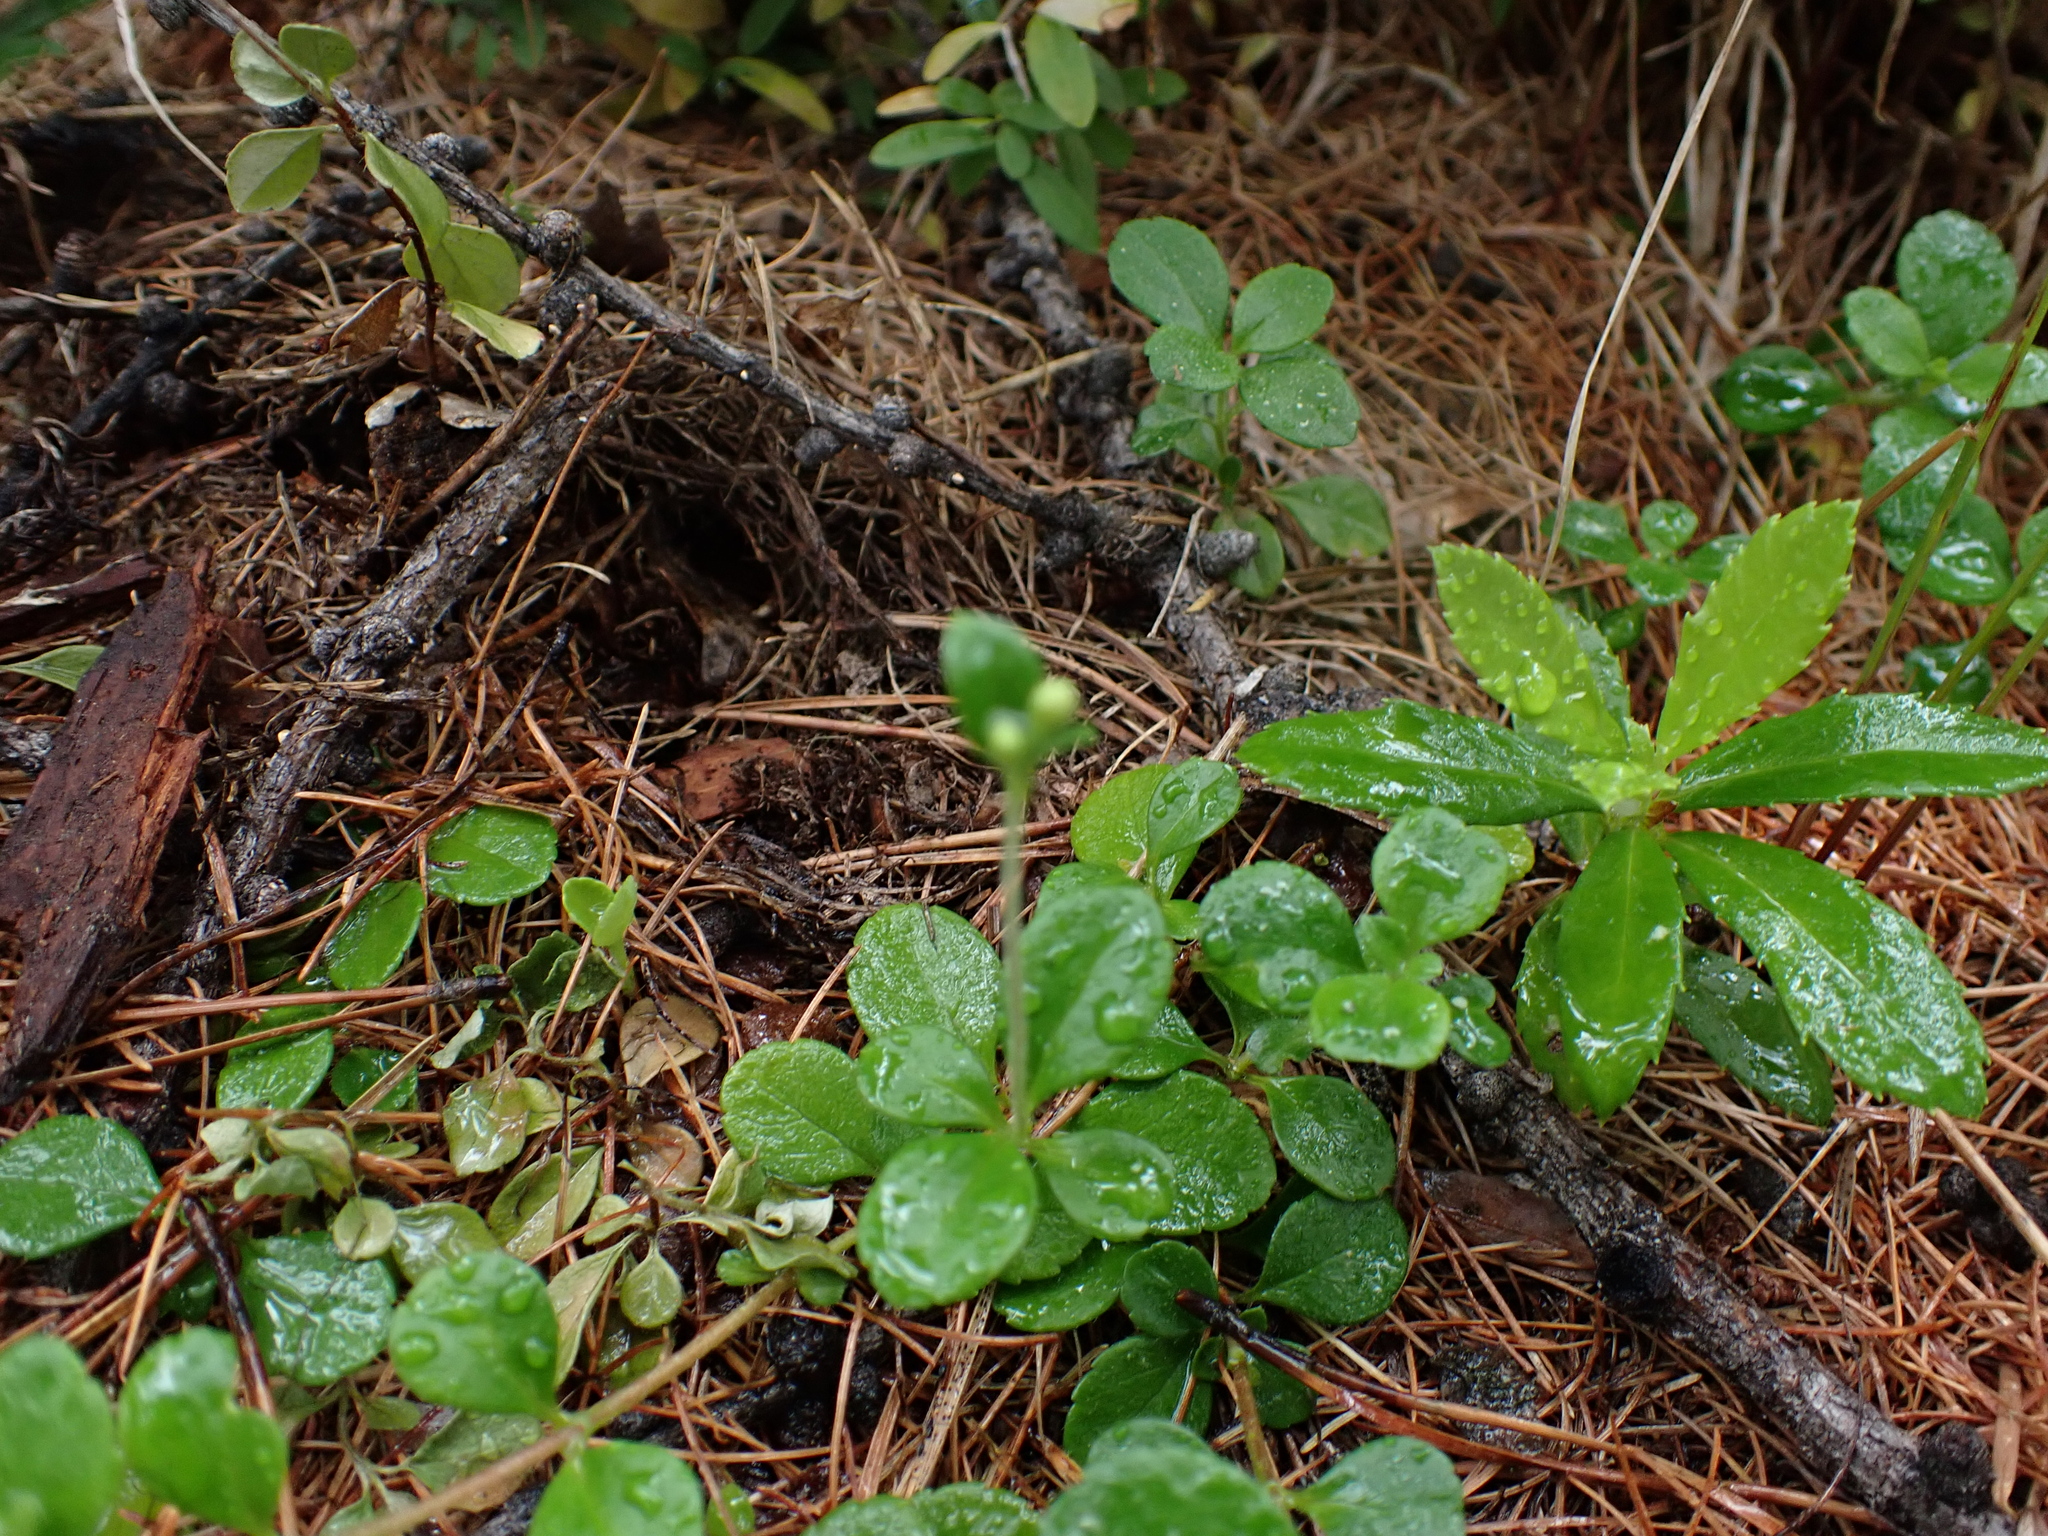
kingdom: Plantae
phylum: Tracheophyta
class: Magnoliopsida
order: Dipsacales
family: Caprifoliaceae
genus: Linnaea
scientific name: Linnaea borealis
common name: Twinflower
